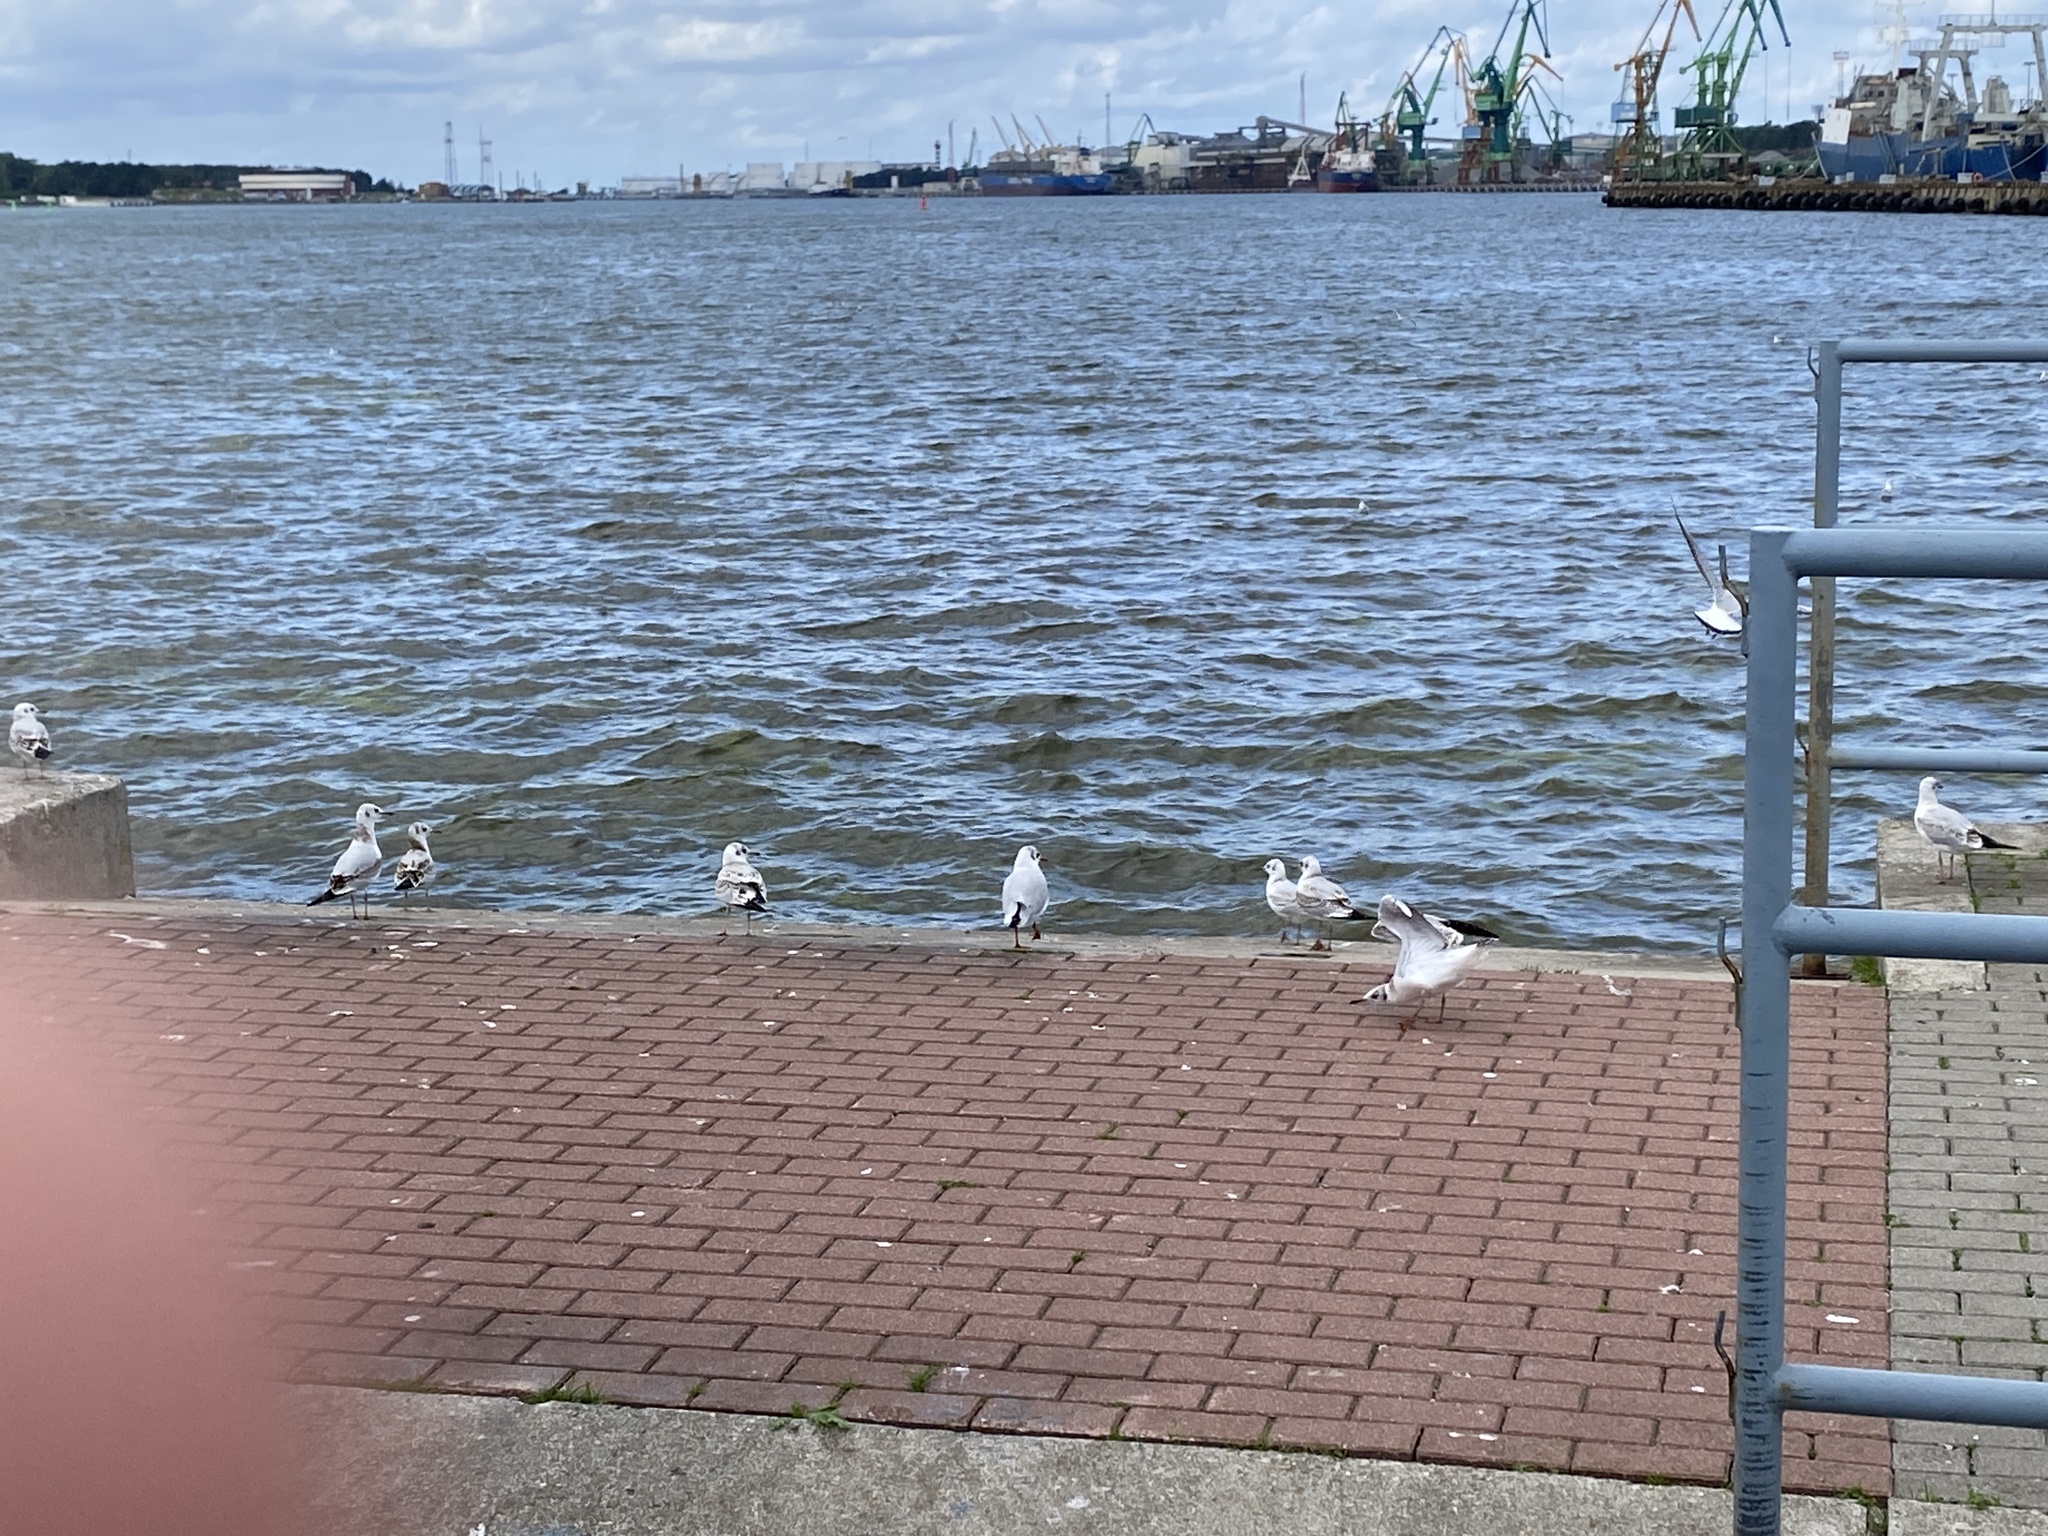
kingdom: Animalia
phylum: Chordata
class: Aves
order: Charadriiformes
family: Laridae
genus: Chroicocephalus
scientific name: Chroicocephalus ridibundus
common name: Black-headed gull
